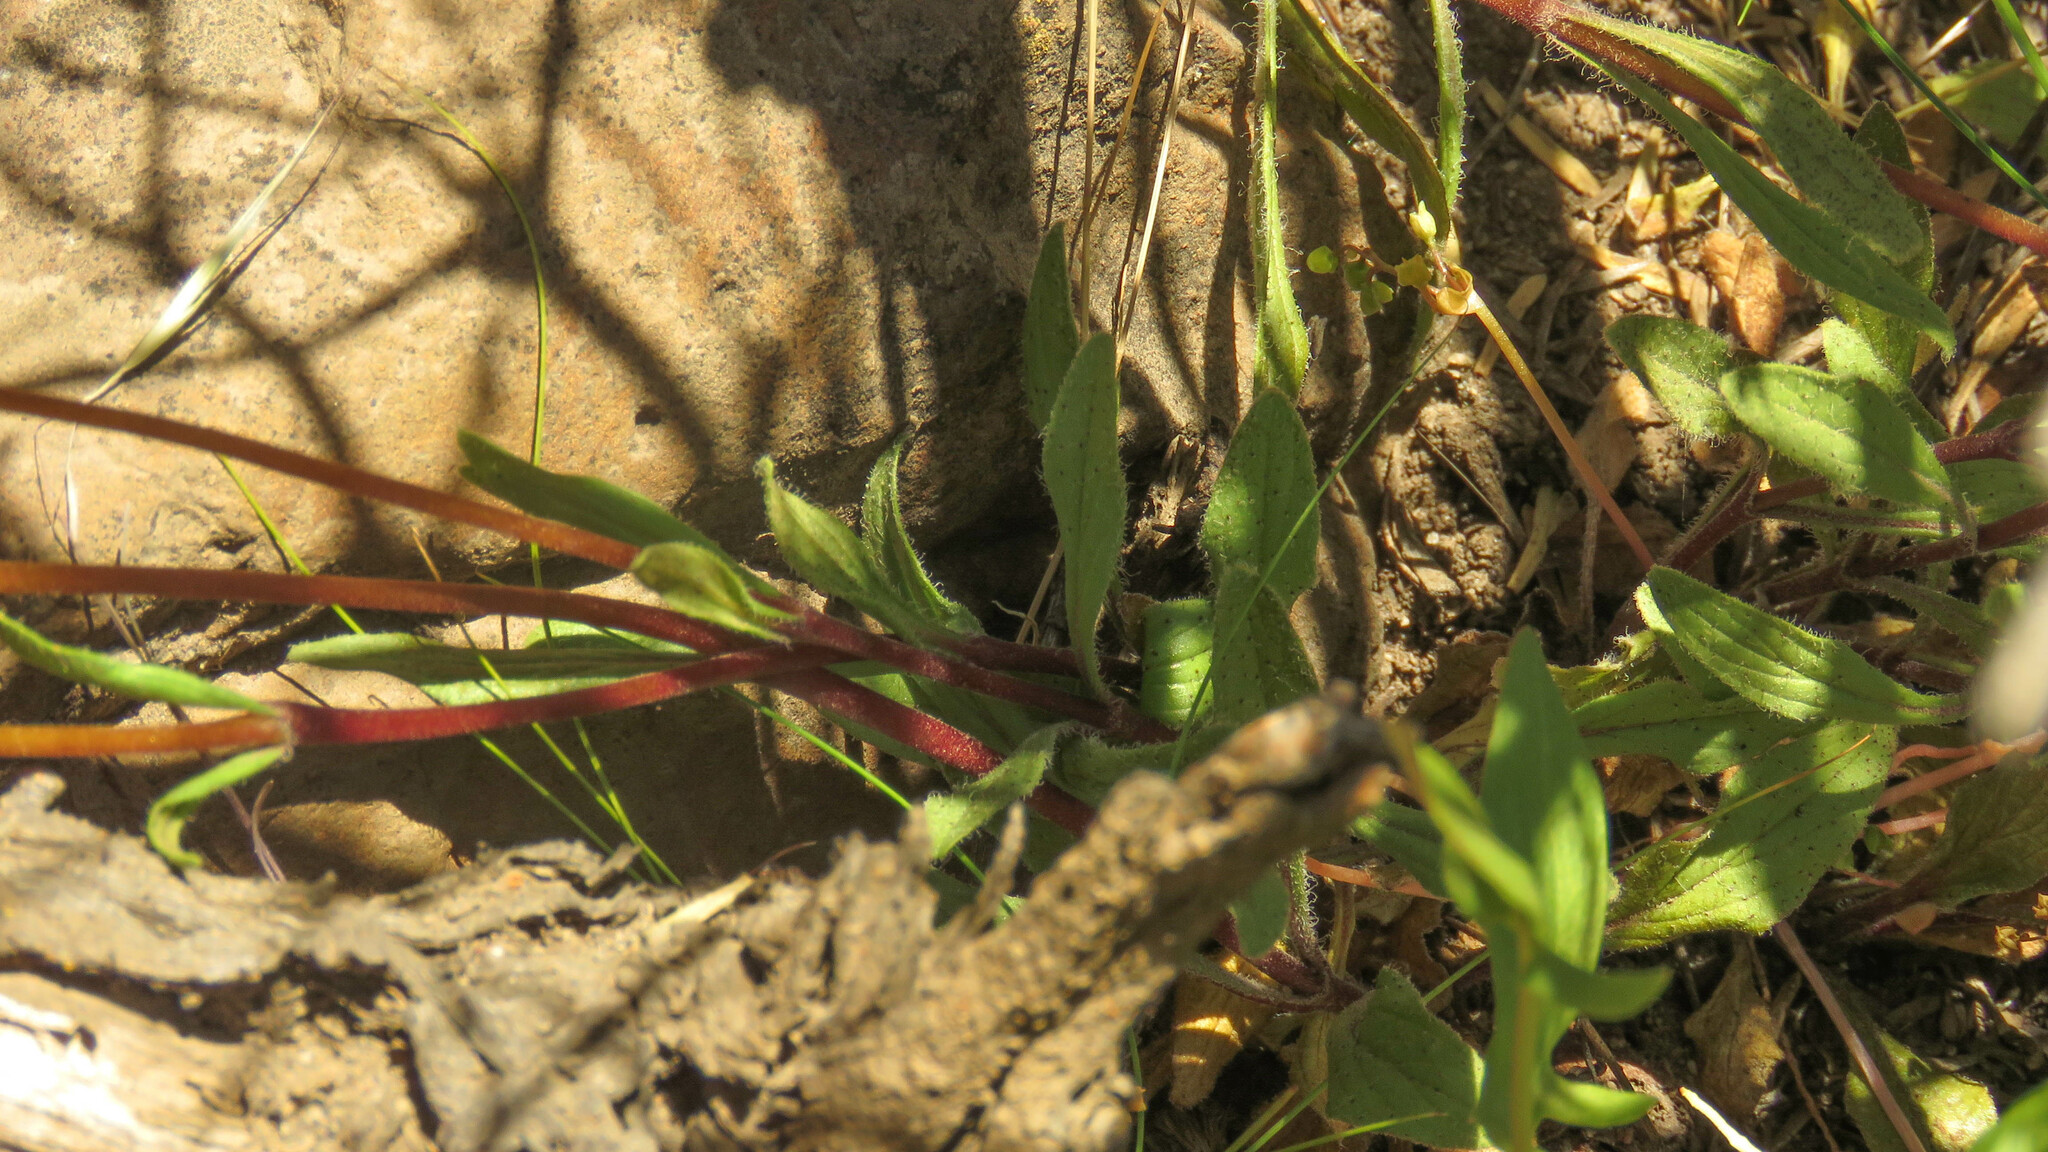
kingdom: Plantae
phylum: Tracheophyta
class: Magnoliopsida
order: Lamiales
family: Calceolariaceae
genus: Calceolaria
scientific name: Calceolaria biflora
